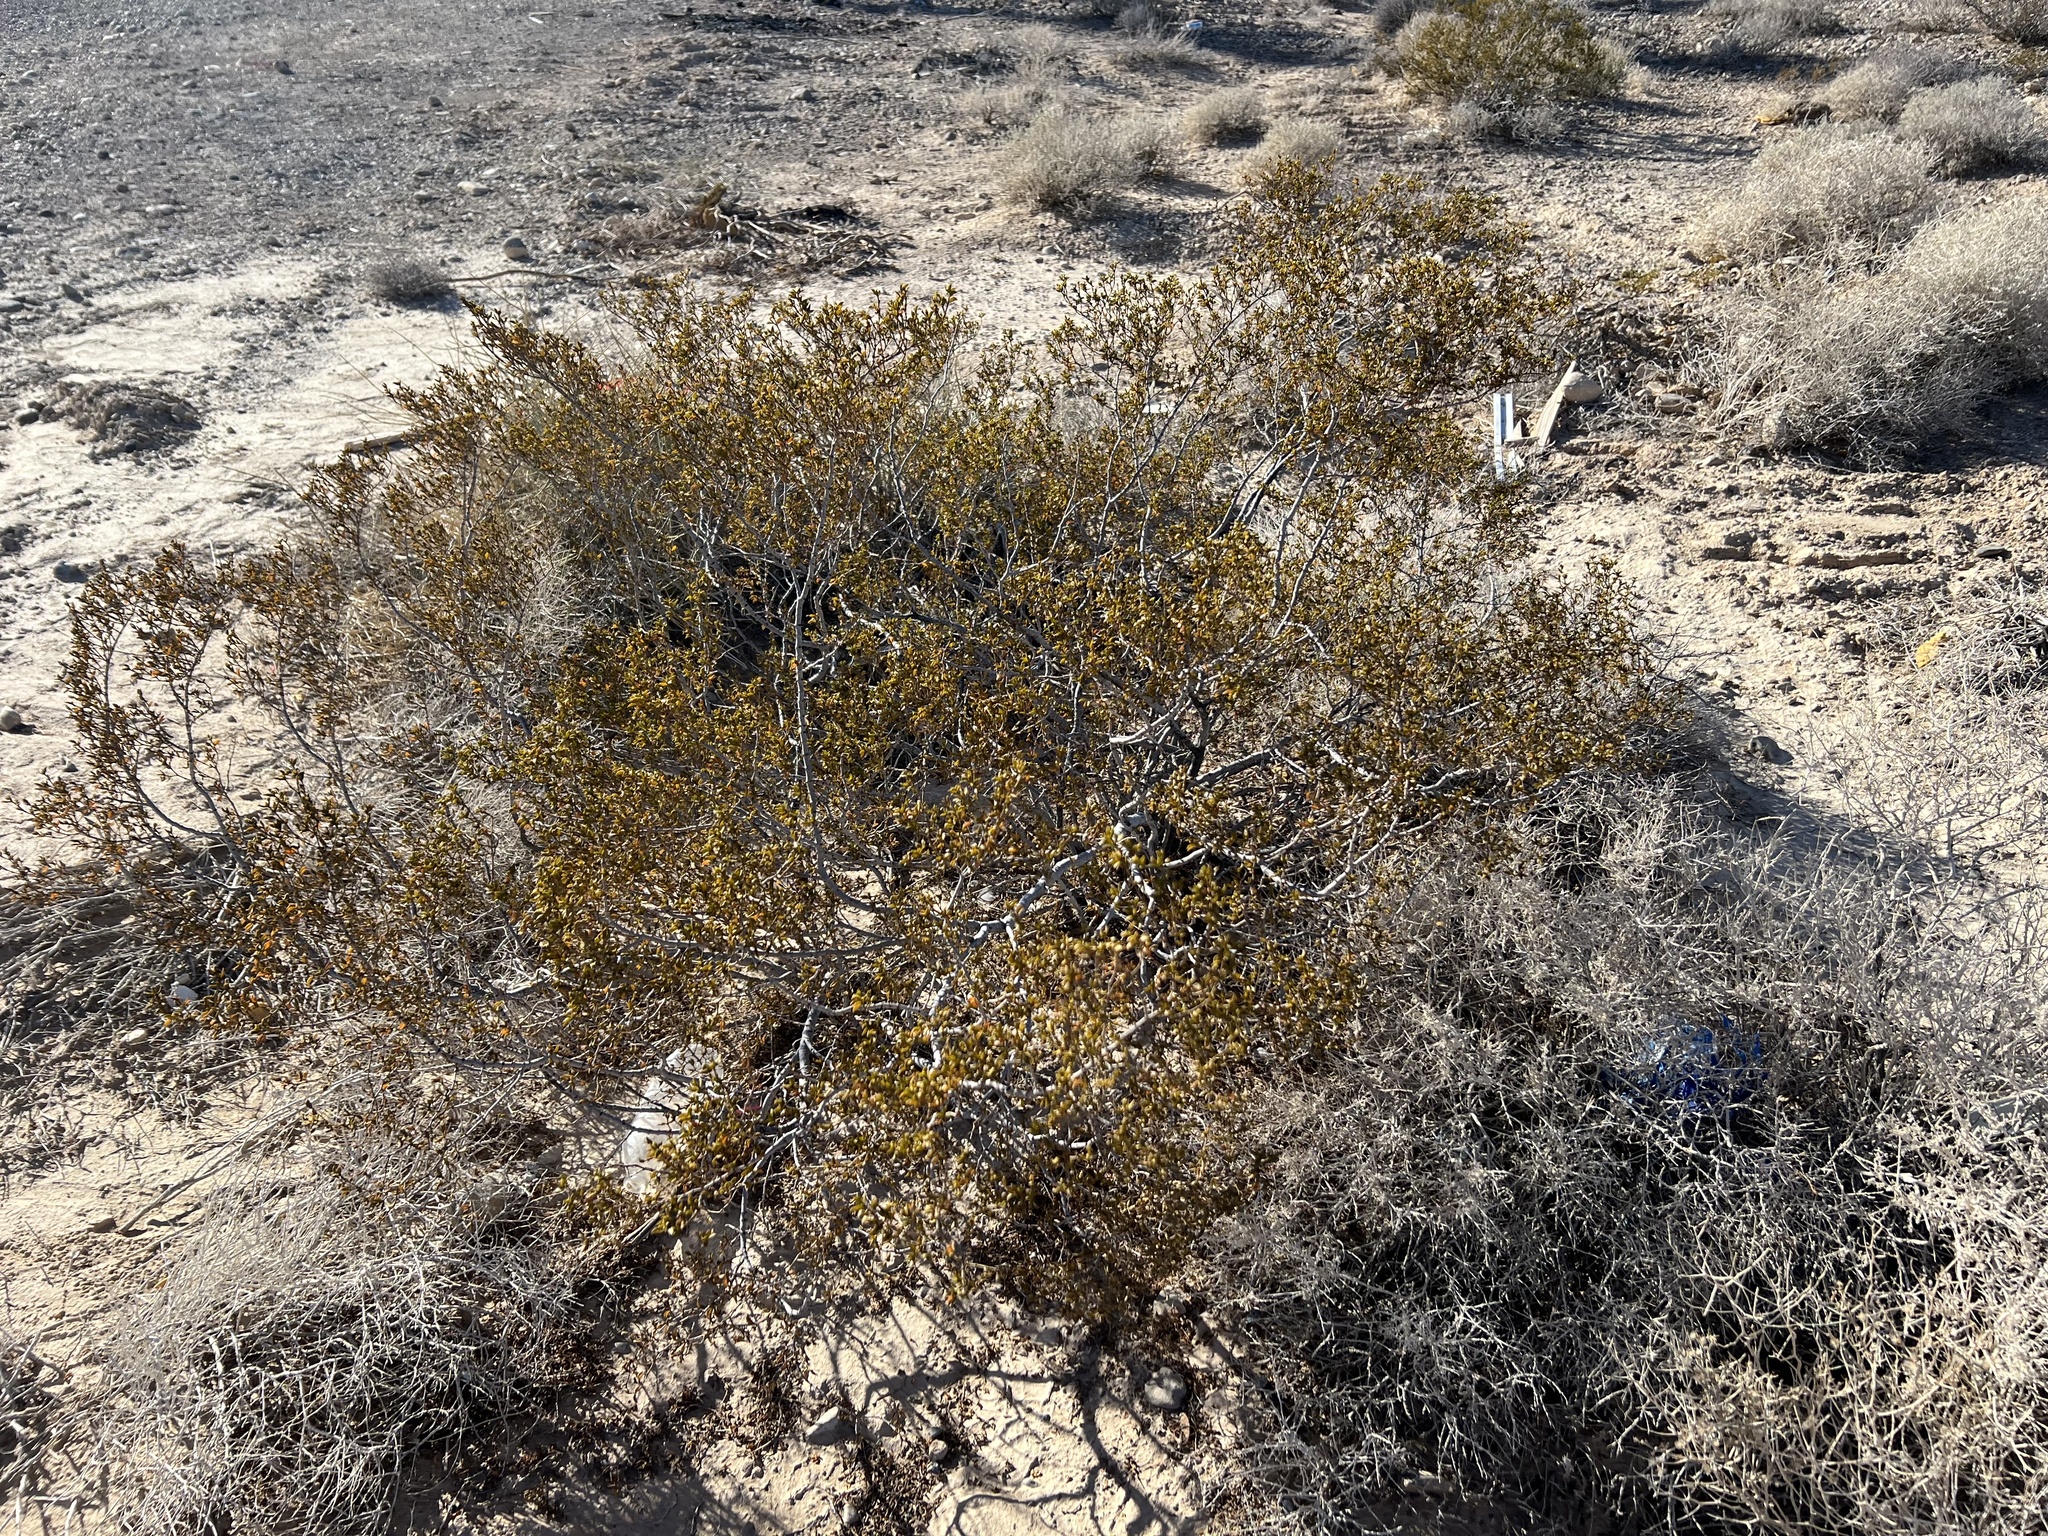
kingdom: Plantae
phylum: Tracheophyta
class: Magnoliopsida
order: Zygophyllales
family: Zygophyllaceae
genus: Larrea
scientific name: Larrea tridentata
